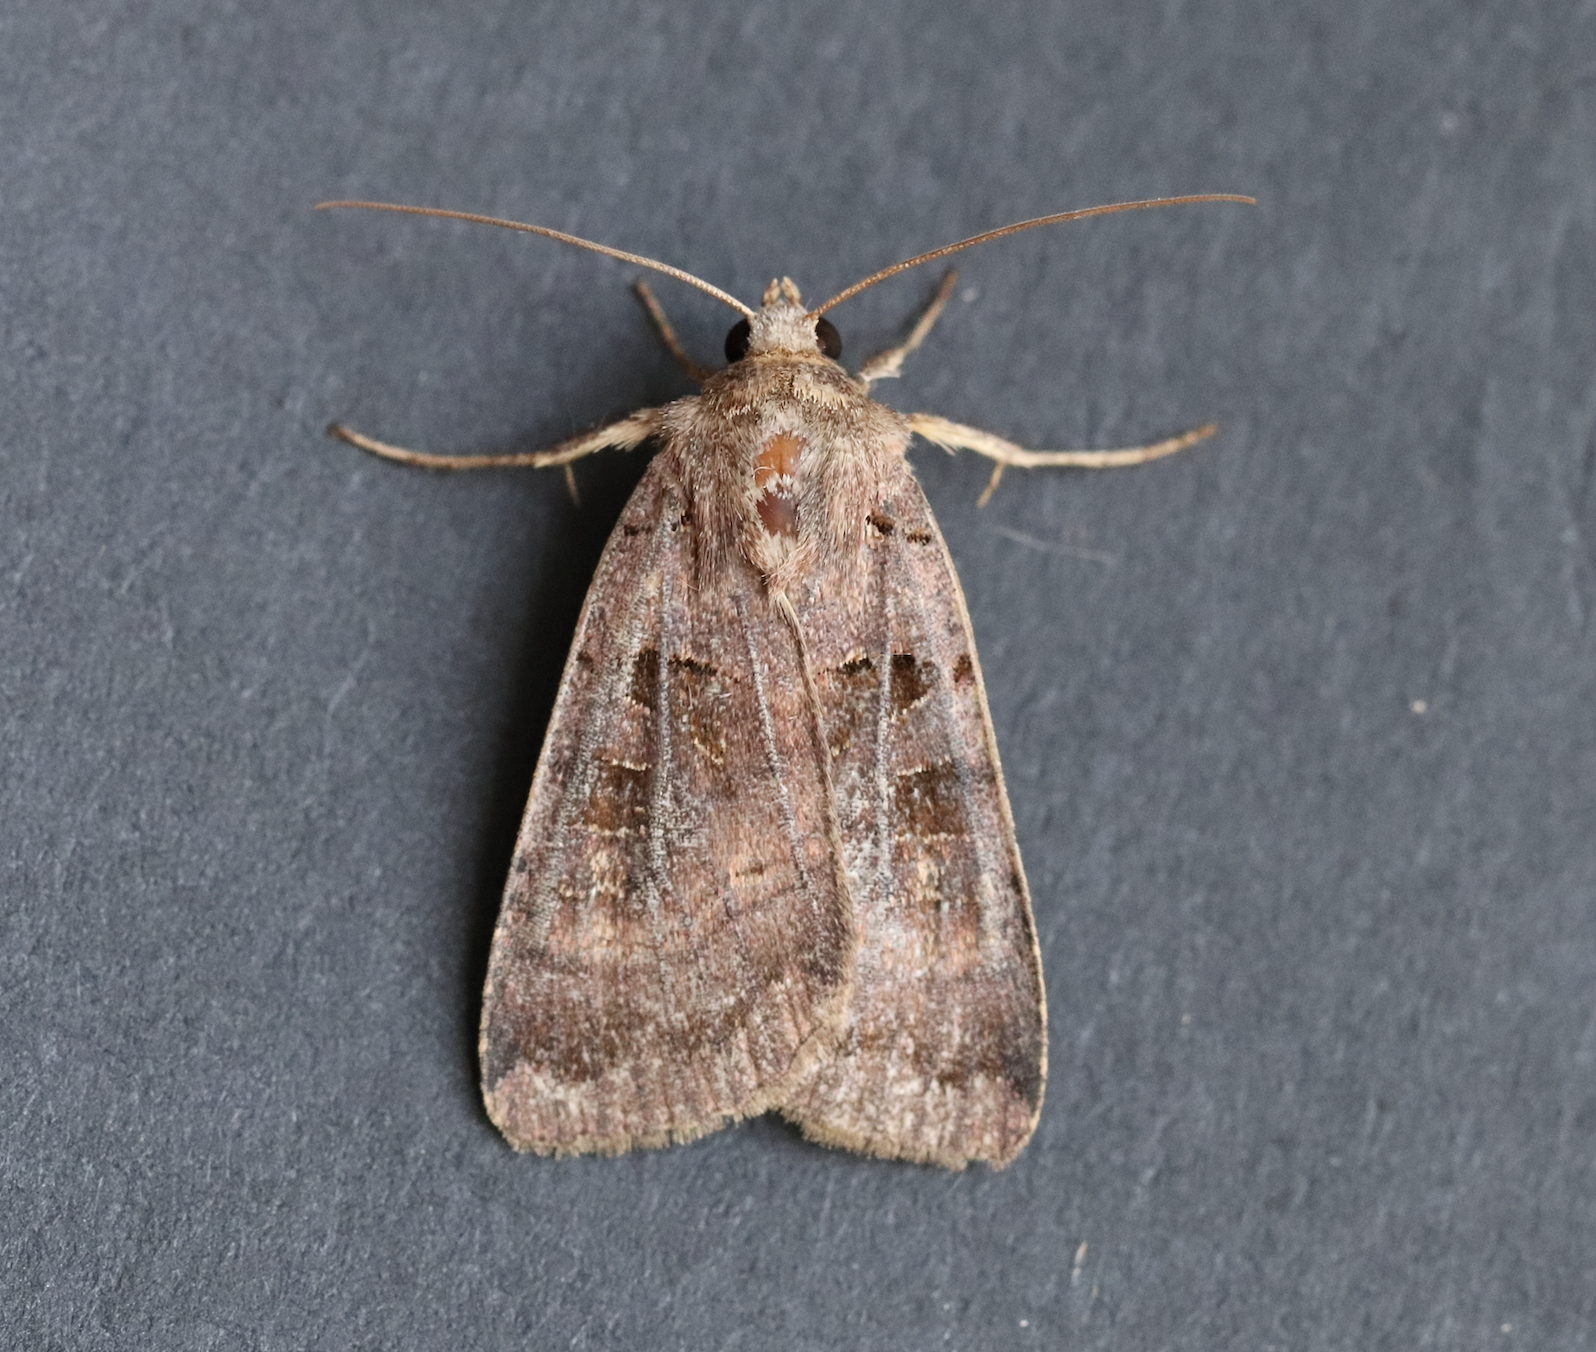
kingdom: Animalia
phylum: Arthropoda
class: Insecta
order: Lepidoptera
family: Noctuidae
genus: Xestia
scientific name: Xestia stigmatica
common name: Square-spotted clay
